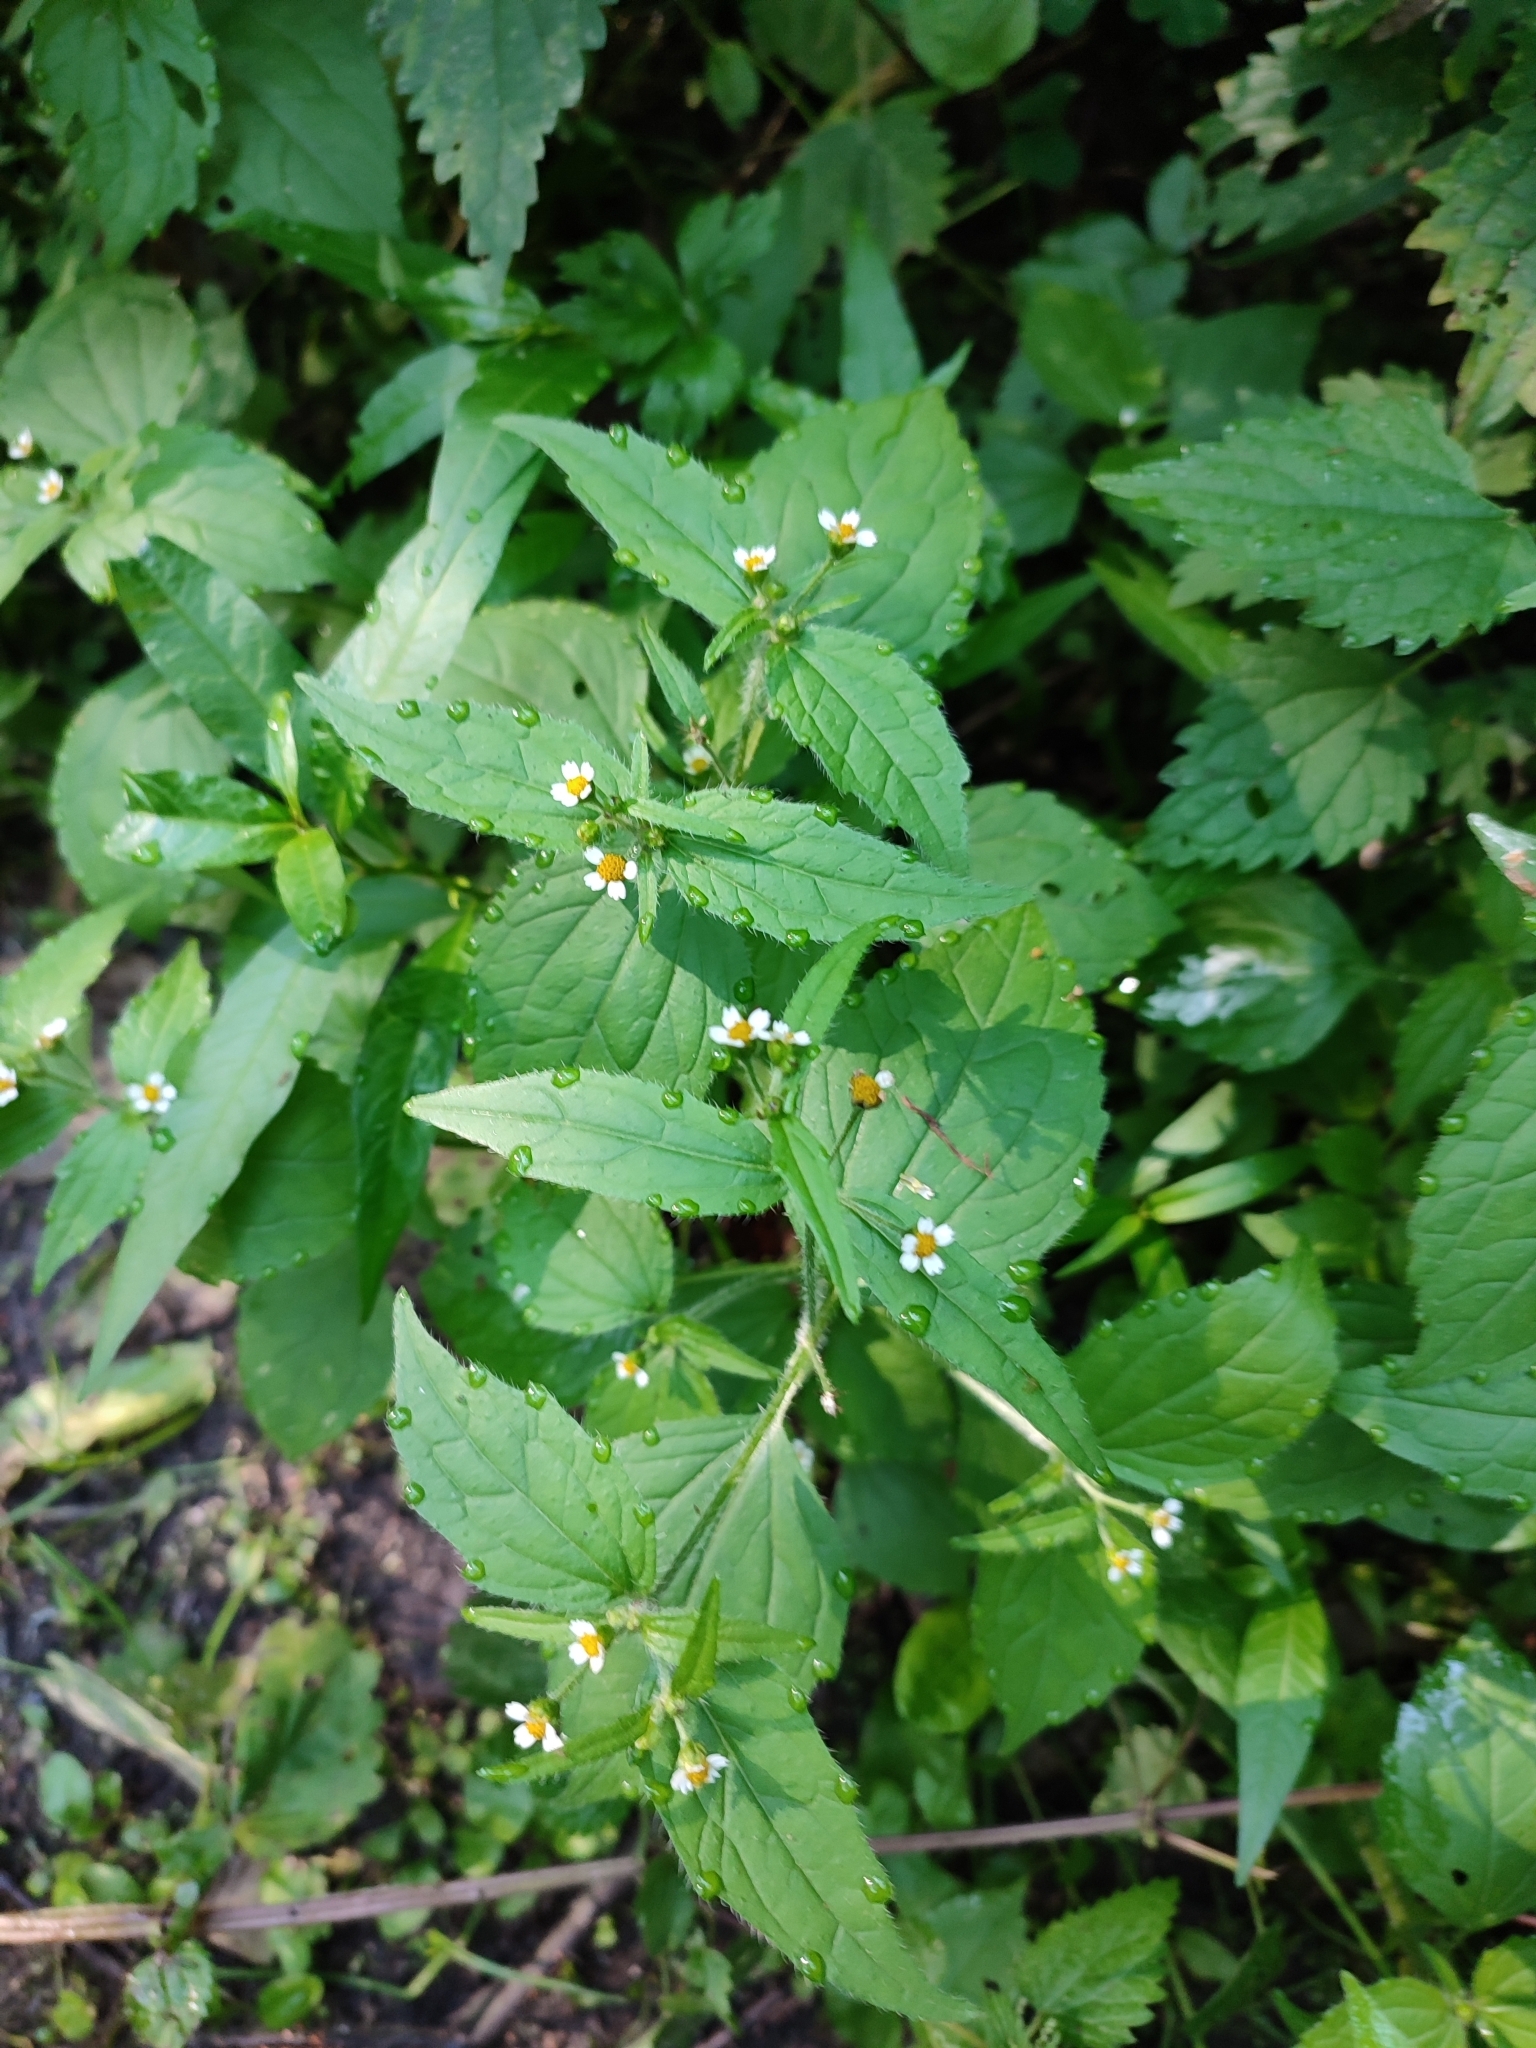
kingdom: Plantae
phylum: Tracheophyta
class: Magnoliopsida
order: Asterales
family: Asteraceae
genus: Galinsoga
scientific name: Galinsoga quadriradiata
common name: Shaggy soldier
